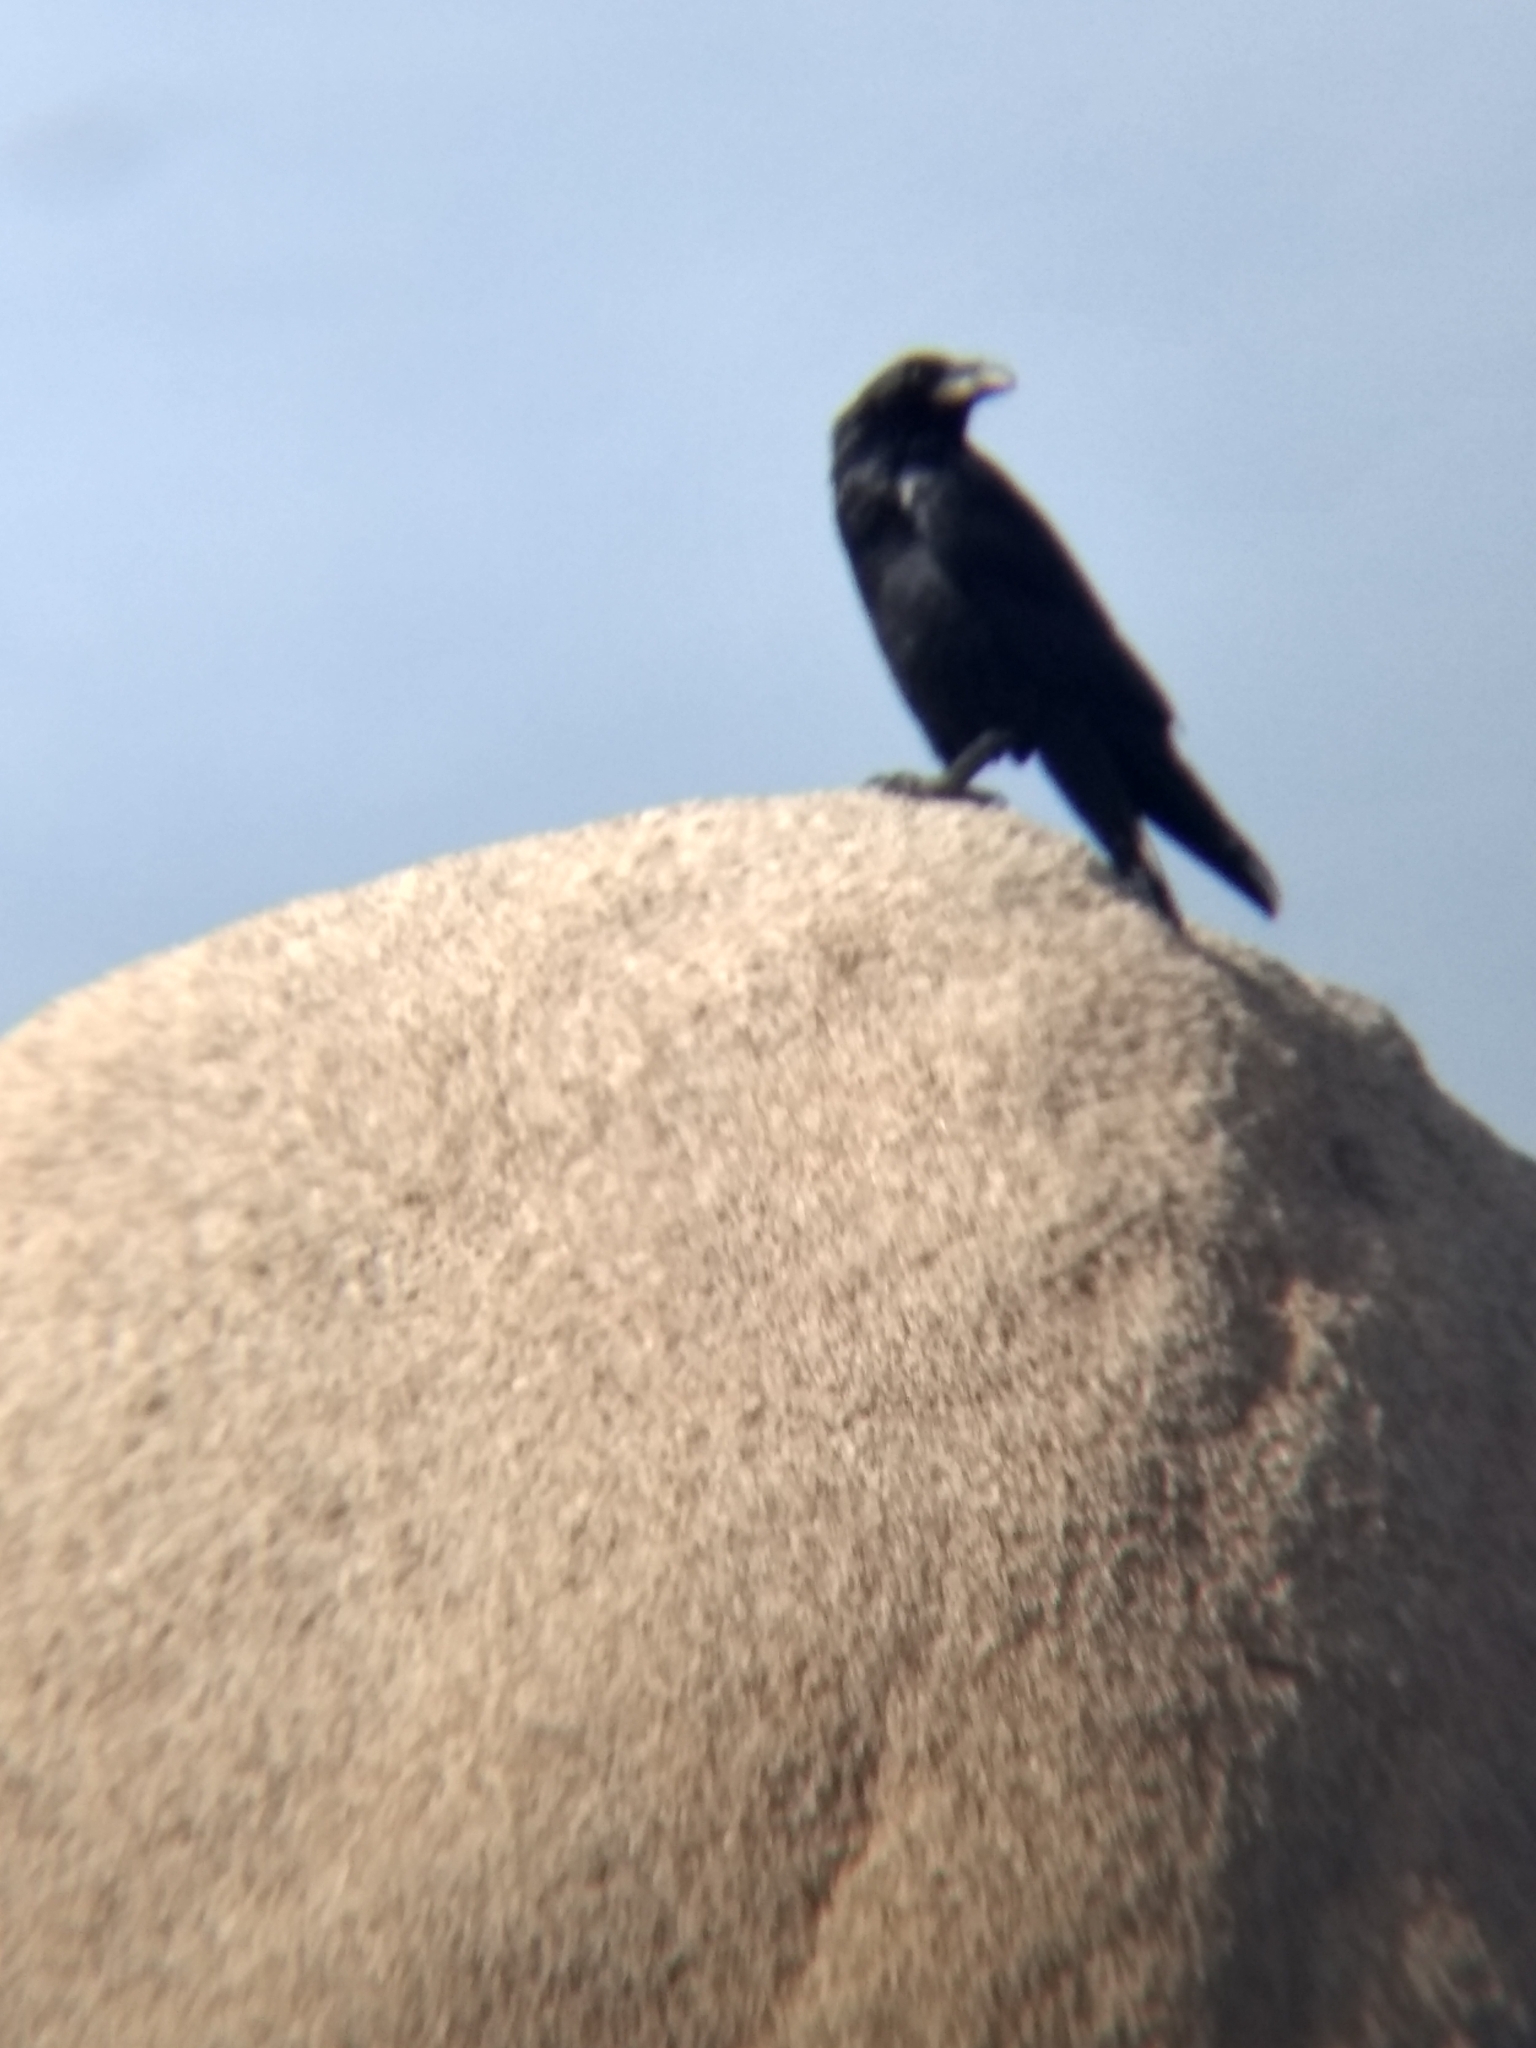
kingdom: Animalia
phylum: Chordata
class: Aves
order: Passeriformes
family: Corvidae
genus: Corvus
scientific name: Corvus corax
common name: Common raven
